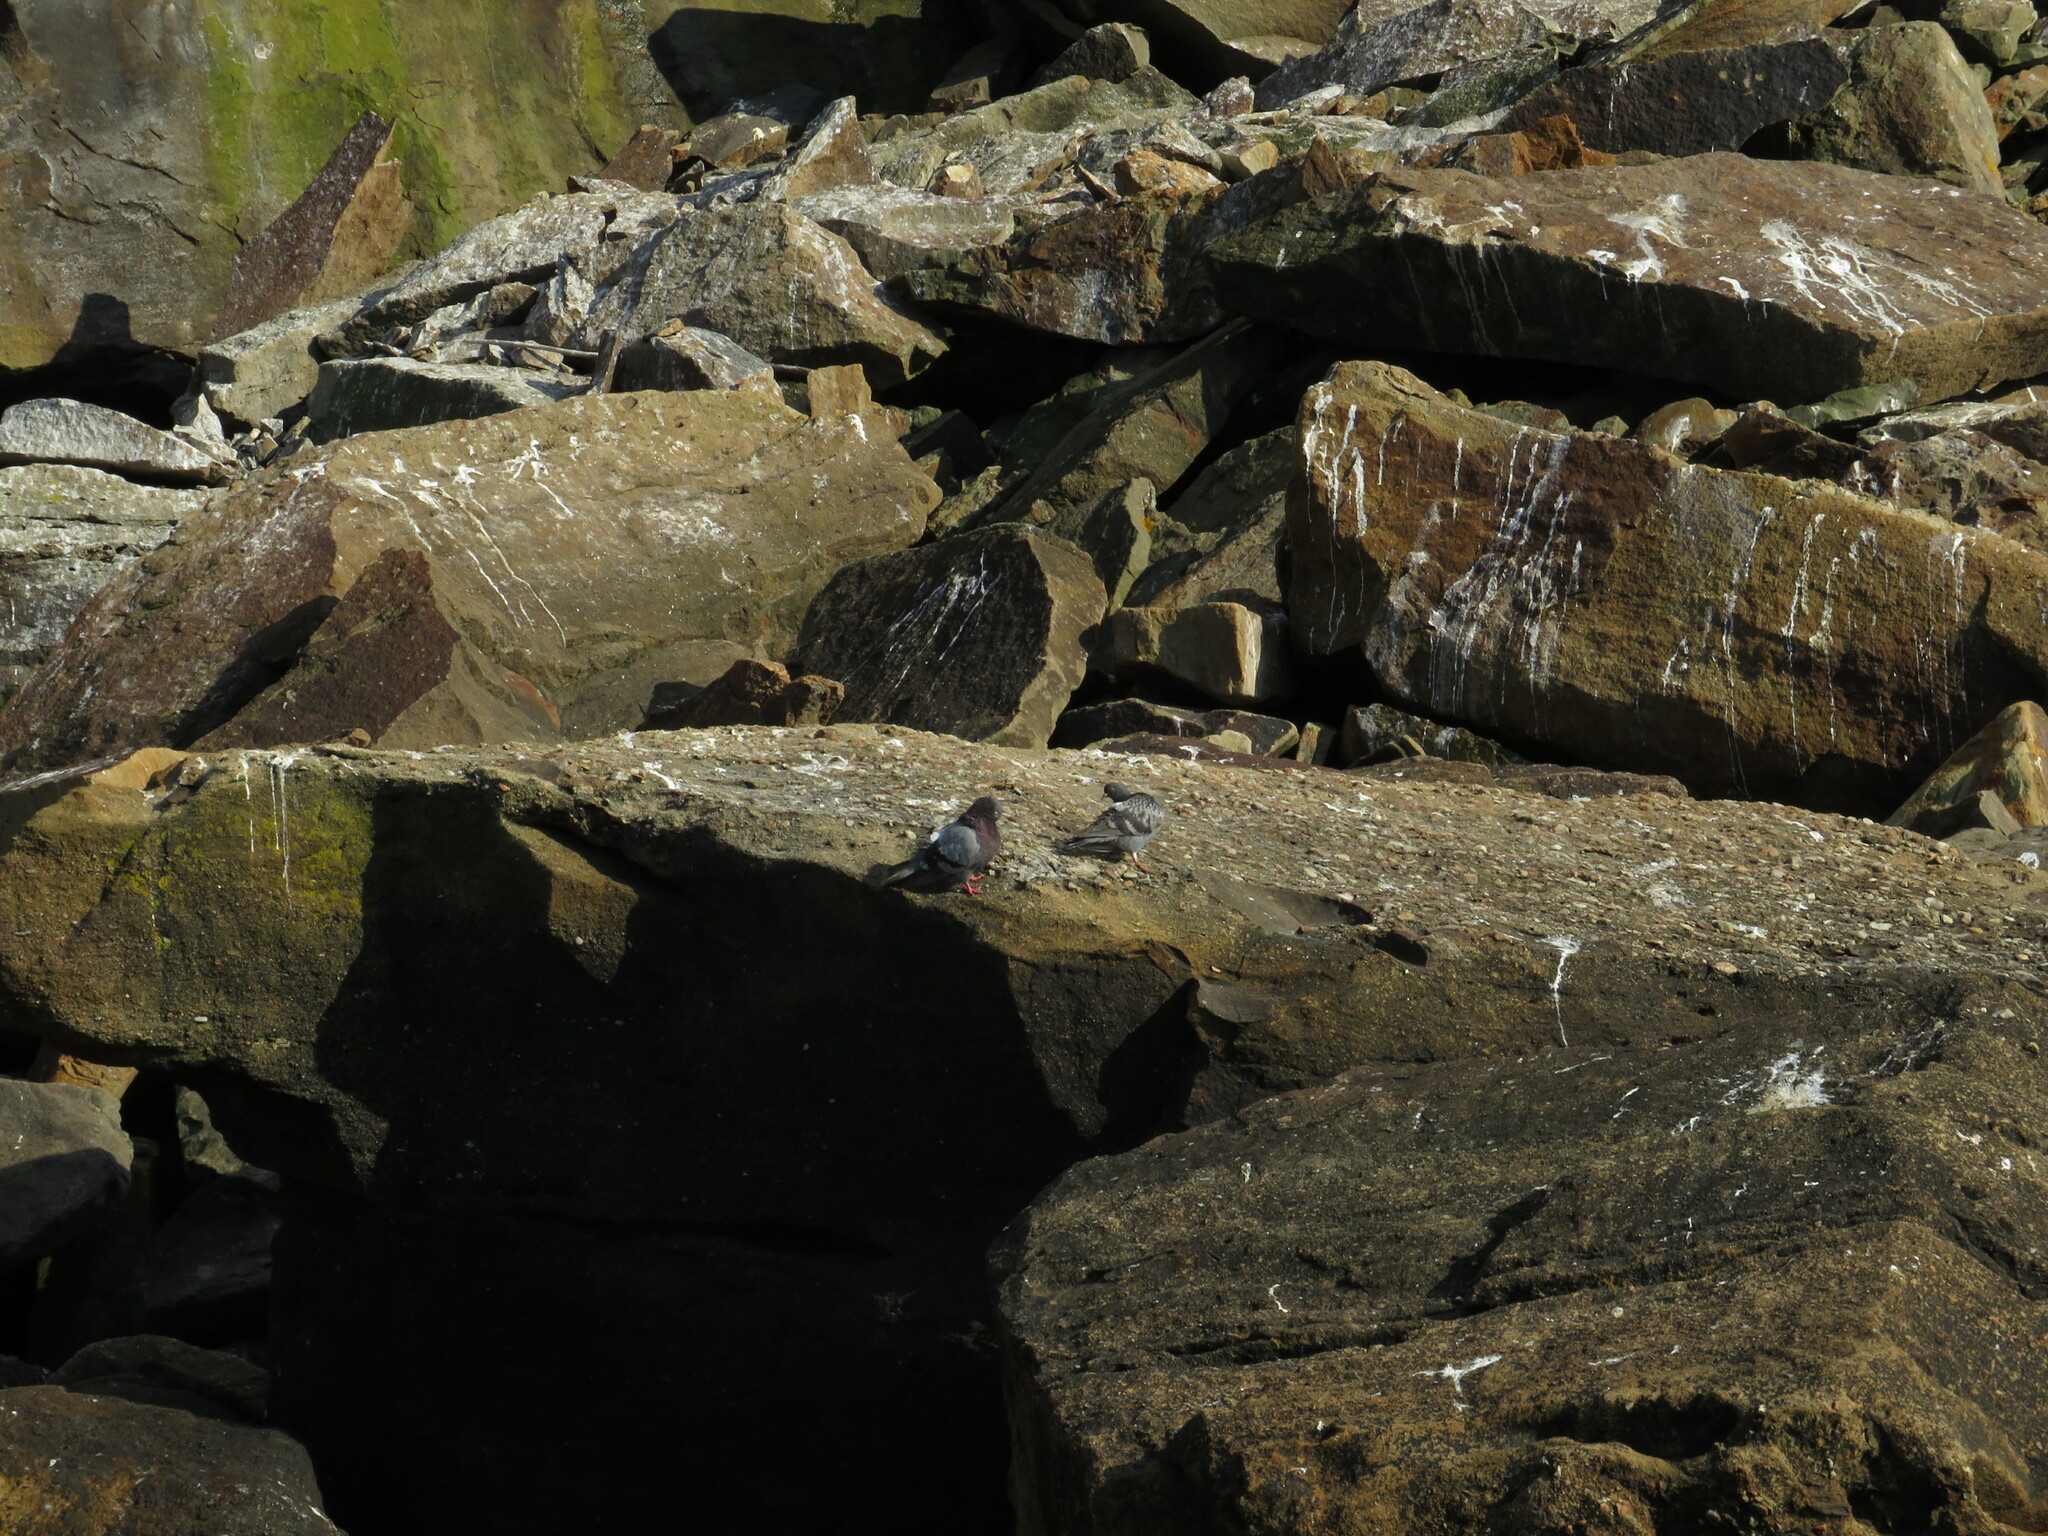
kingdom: Animalia
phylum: Chordata
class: Aves
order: Columbiformes
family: Columbidae
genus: Columba
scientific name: Columba livia
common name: Rock pigeon
